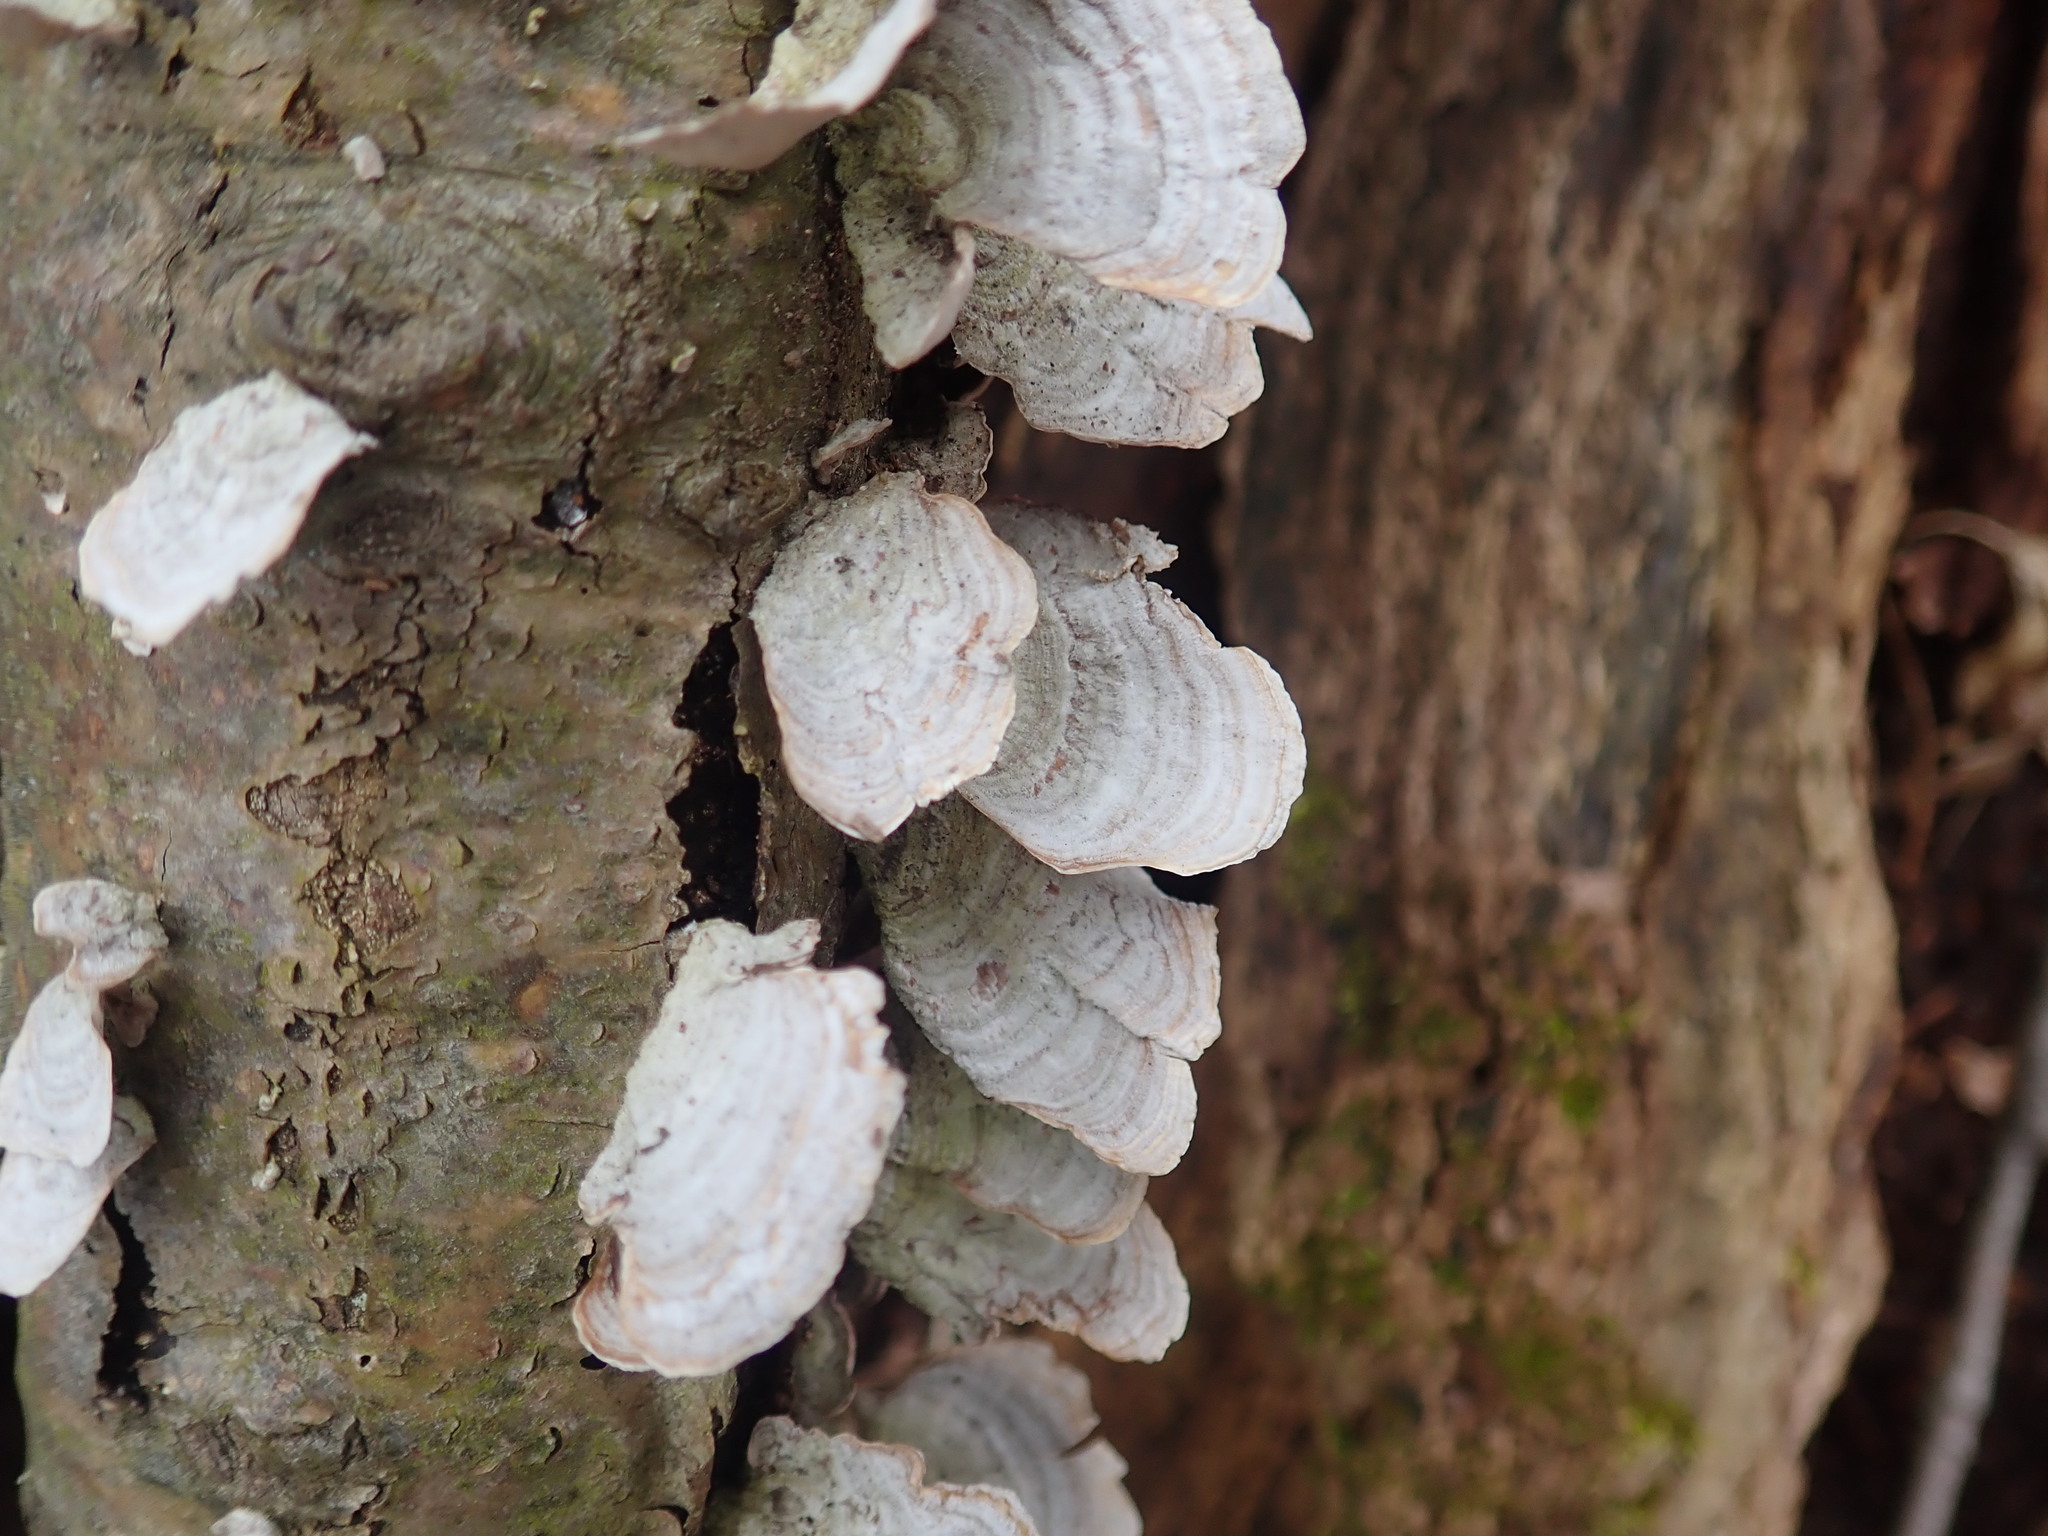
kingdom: Fungi
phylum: Basidiomycota
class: Agaricomycetes
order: Russulales
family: Stereaceae
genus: Stereum
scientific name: Stereum ostrea
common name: False turkeytail
